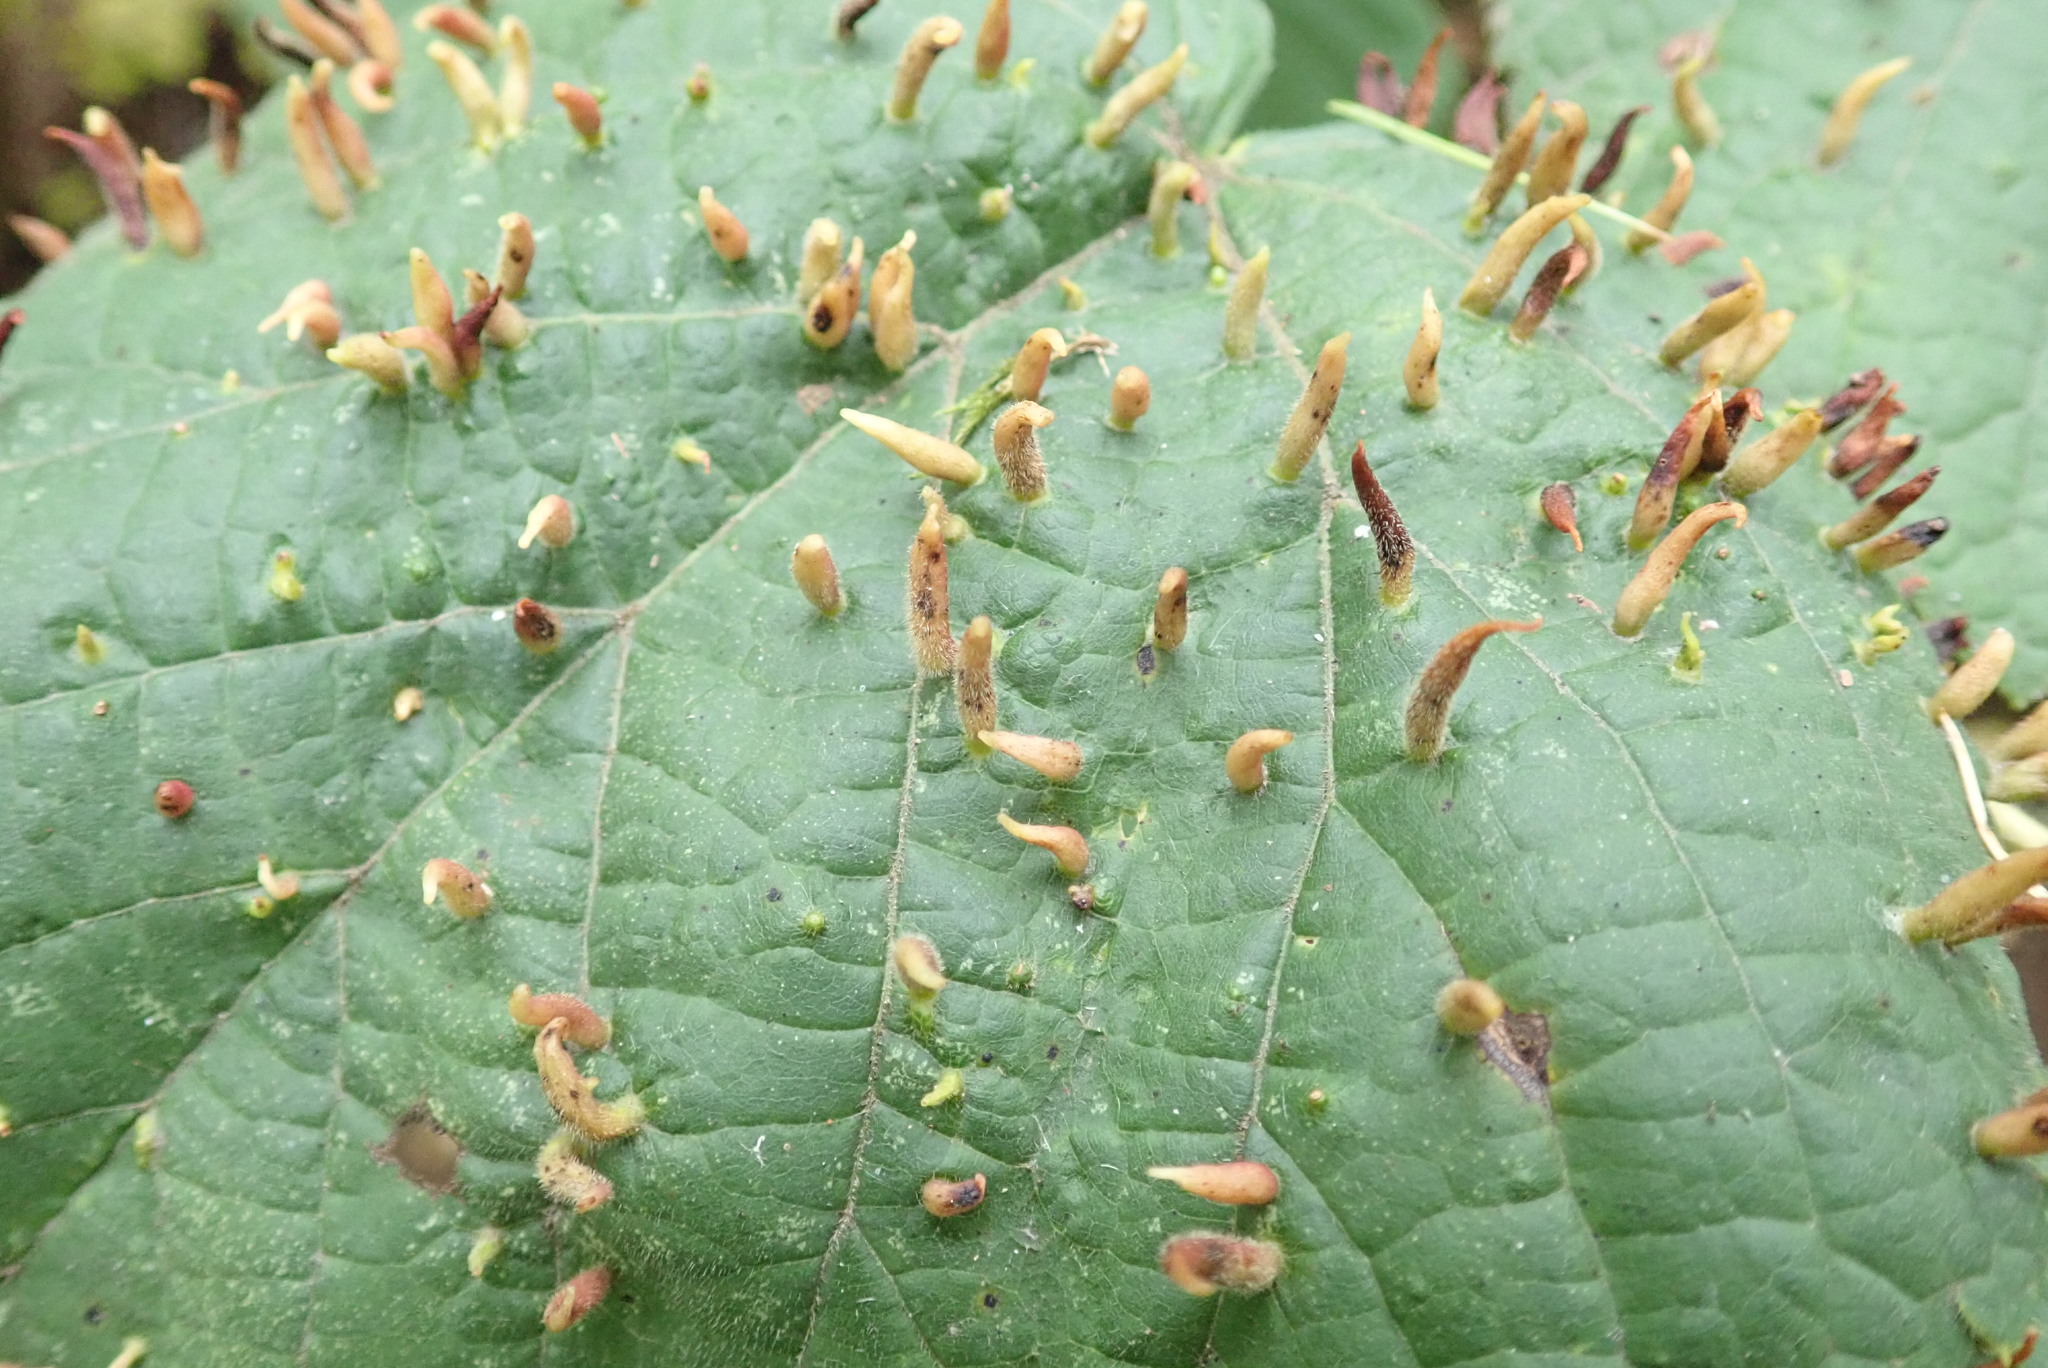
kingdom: Animalia
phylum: Arthropoda
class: Arachnida
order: Trombidiformes
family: Eriophyidae
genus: Eriophyes
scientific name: Eriophyes tiliae
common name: Red nail gall mite
